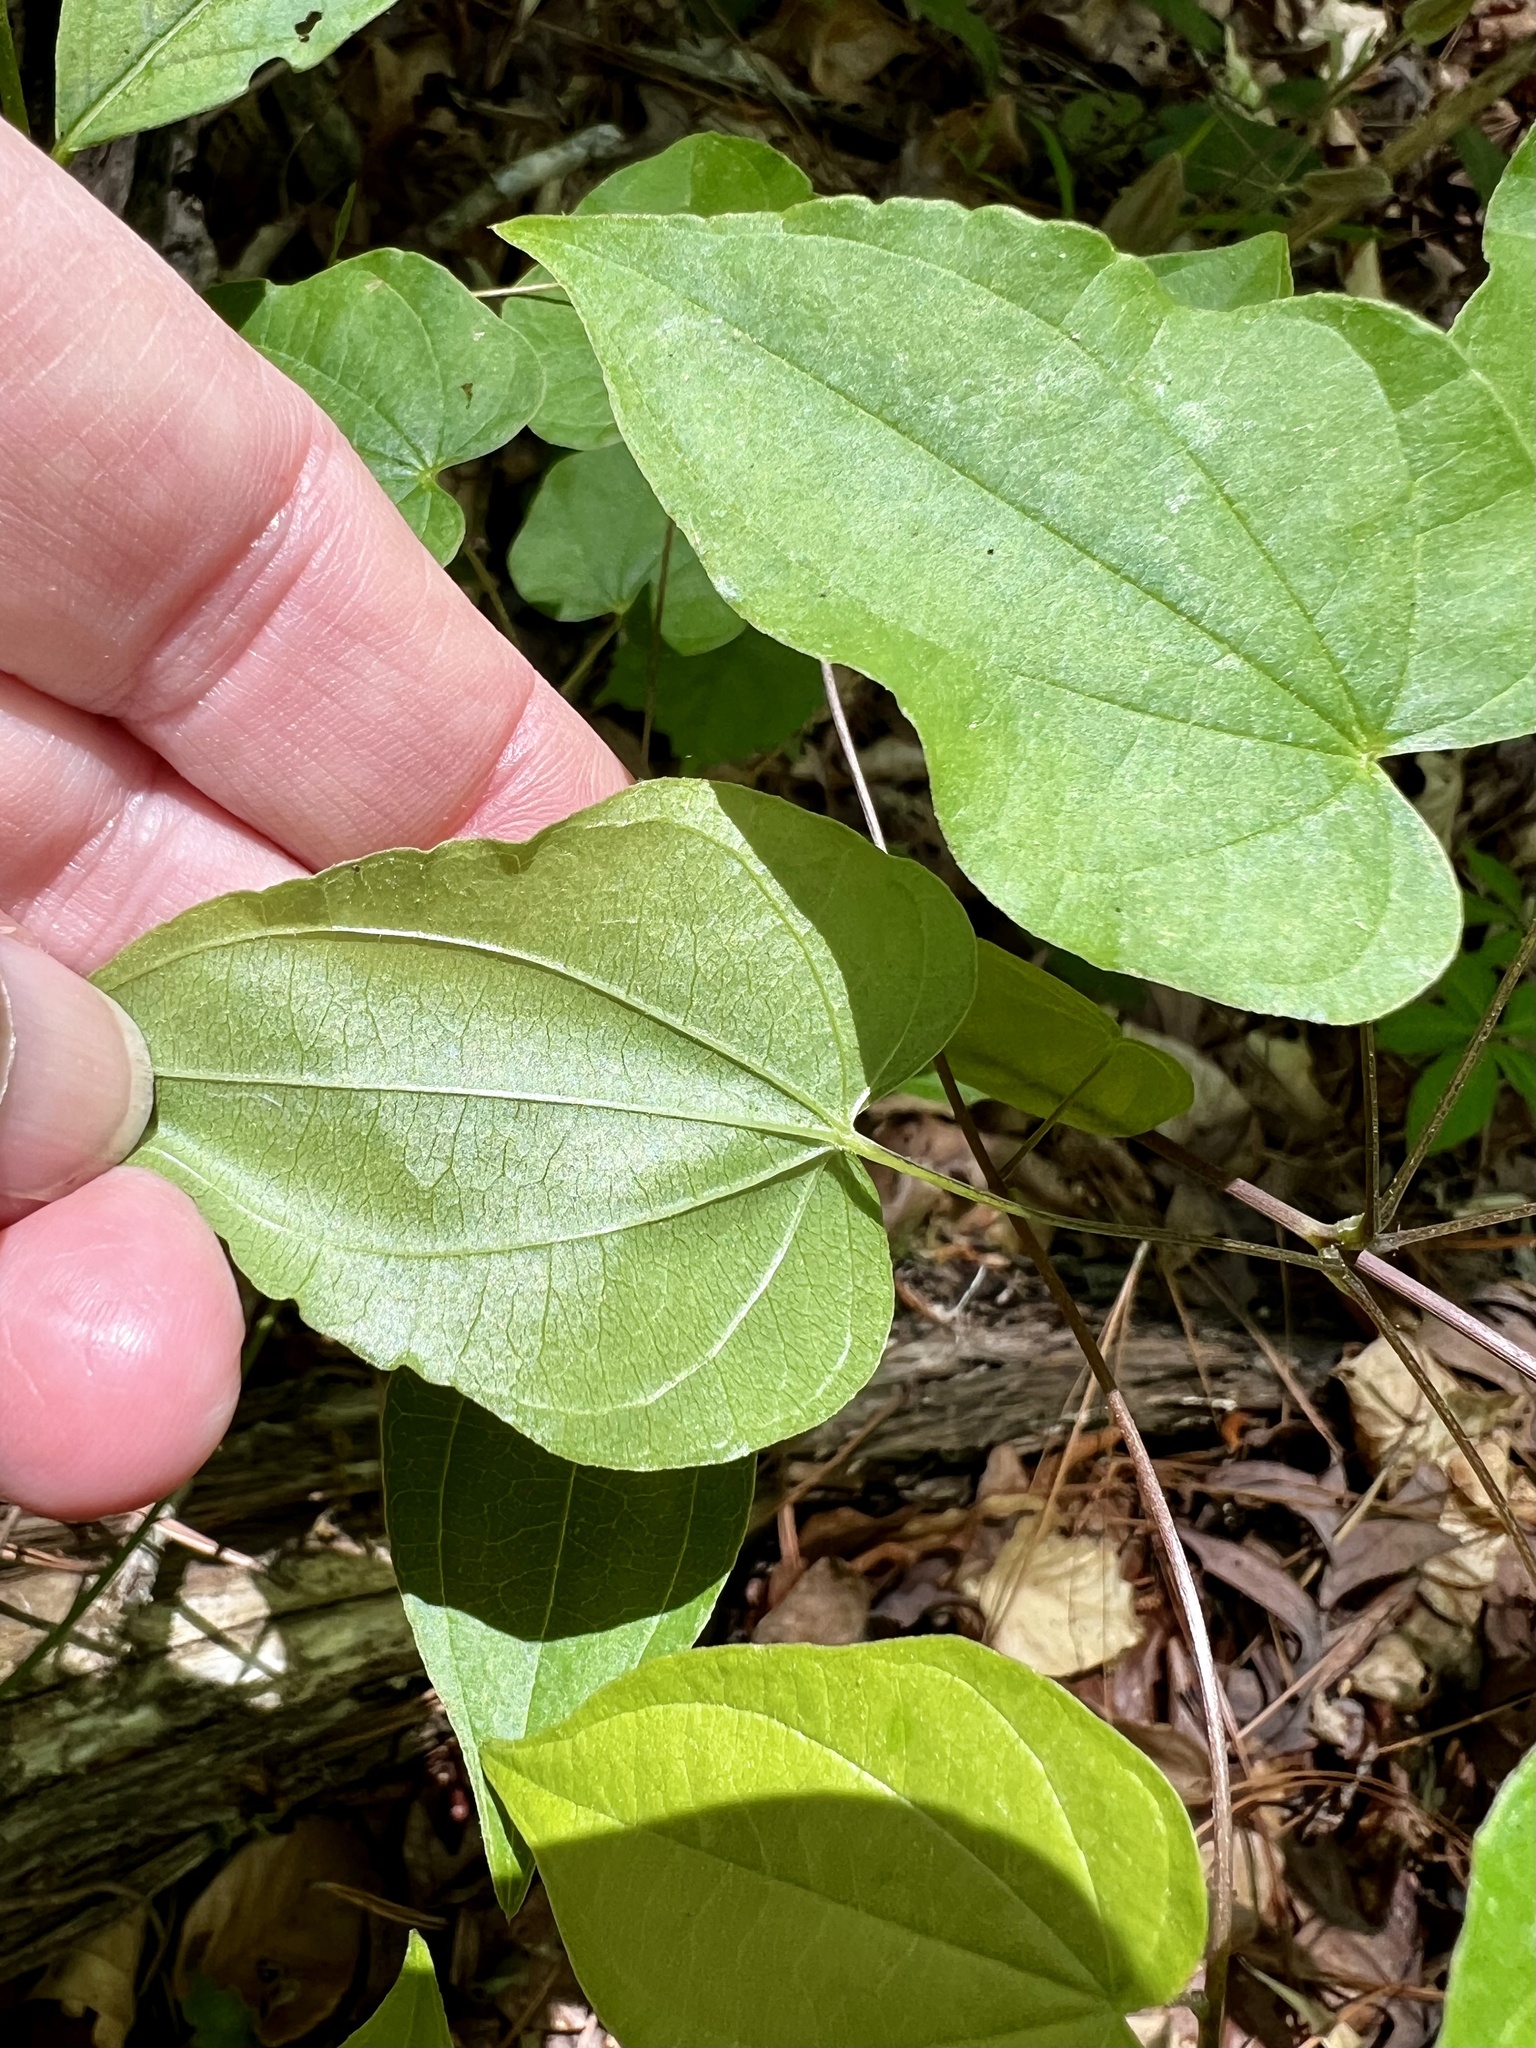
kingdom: Plantae
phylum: Tracheophyta
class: Liliopsida
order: Dioscoreales
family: Dioscoreaceae
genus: Dioscorea
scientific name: Dioscorea villosa
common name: Wild yam
